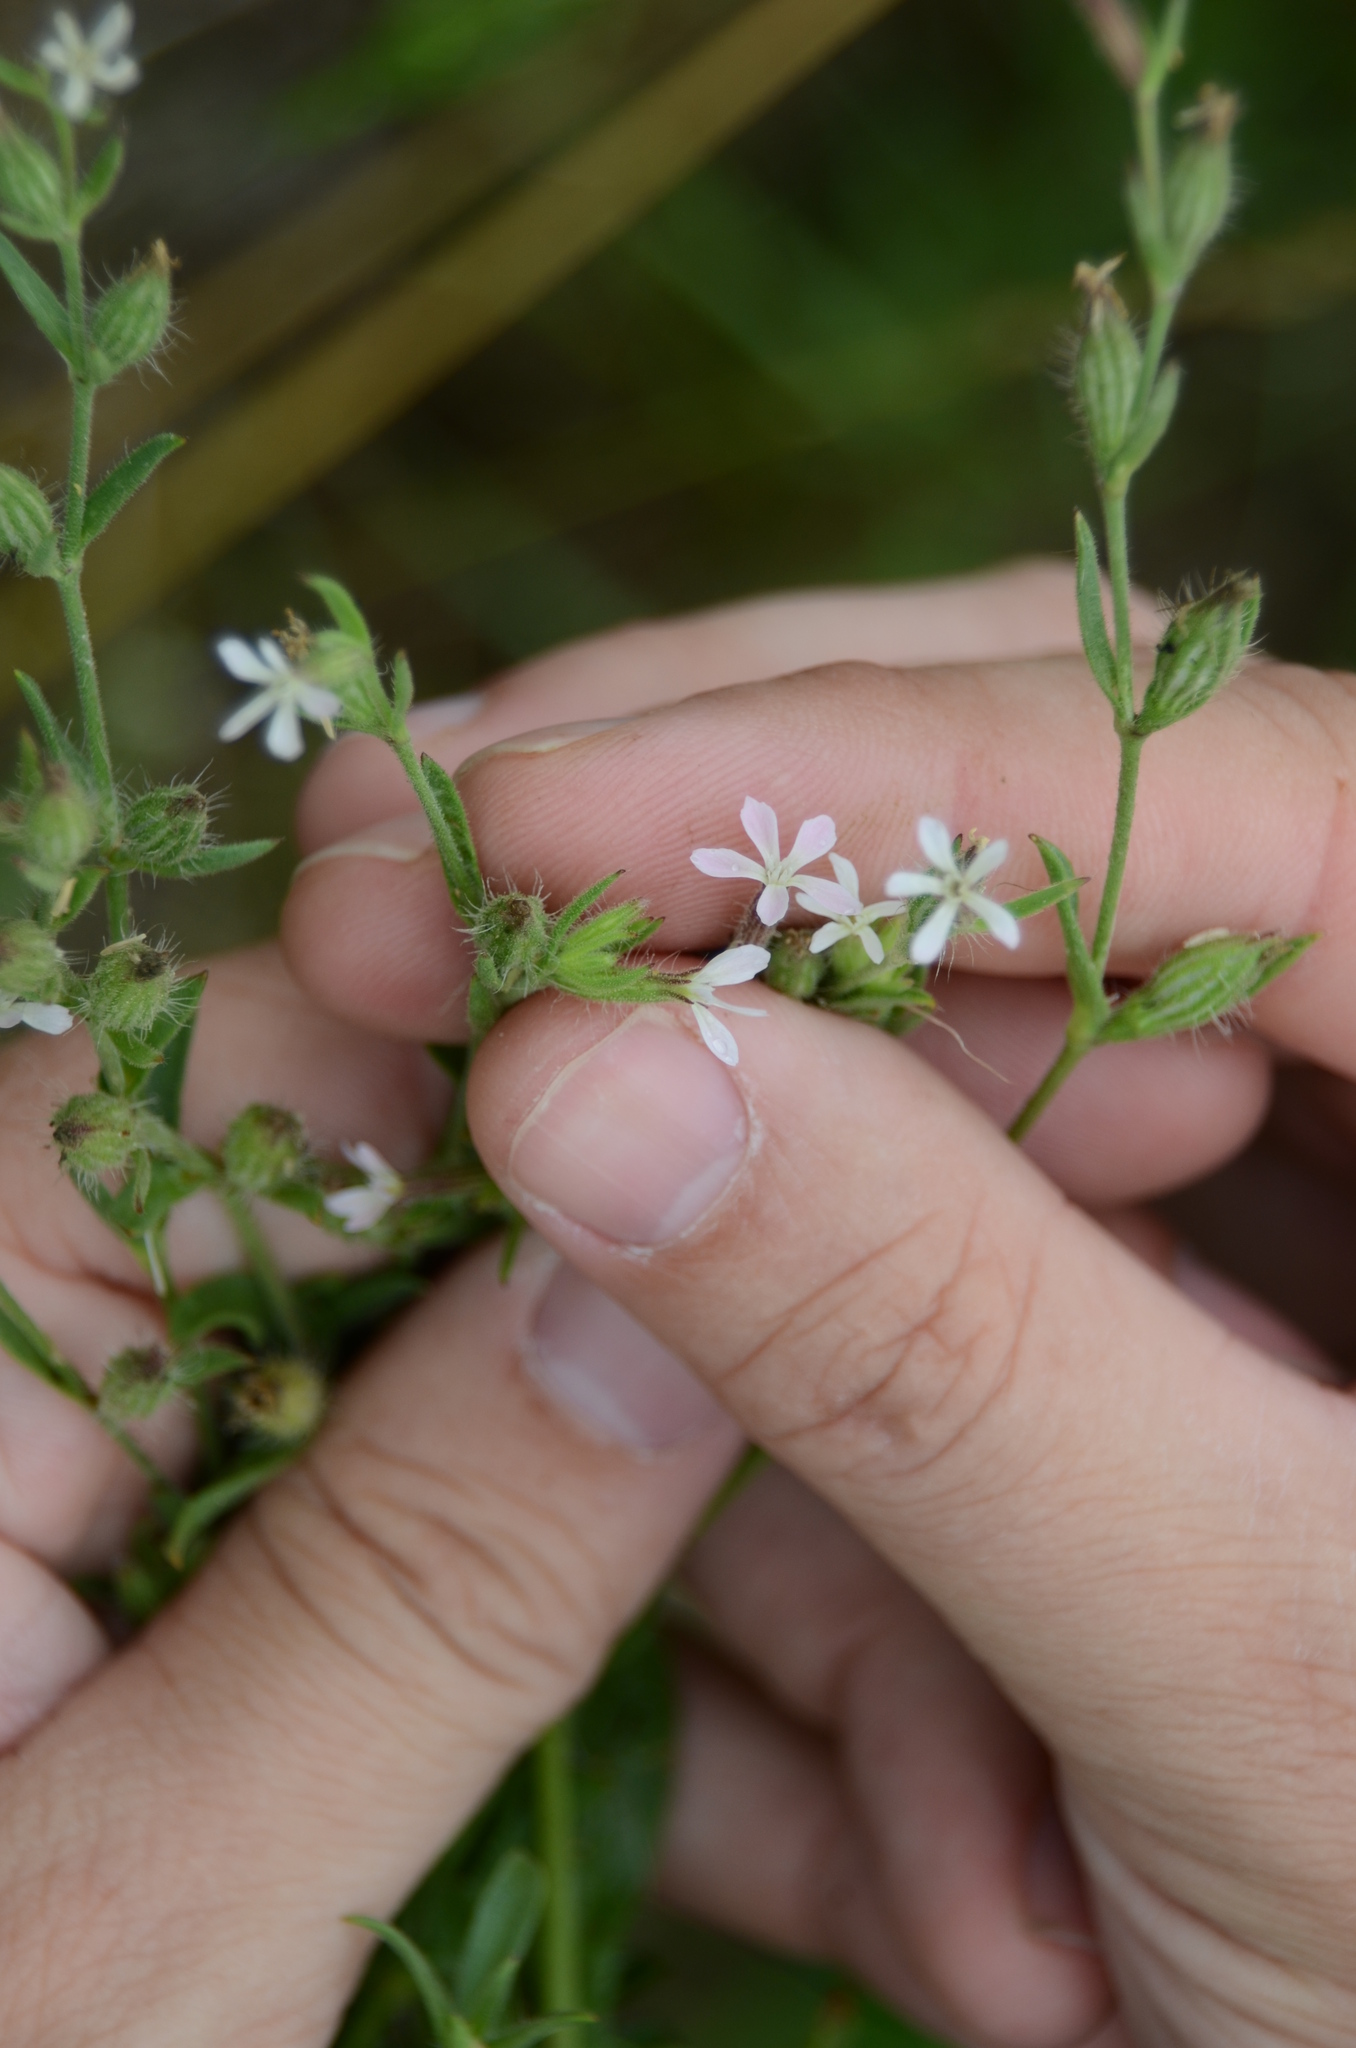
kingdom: Plantae
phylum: Tracheophyta
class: Magnoliopsida
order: Caryophyllales
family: Caryophyllaceae
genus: Silene
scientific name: Silene gallica
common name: Small-flowered catchfly
